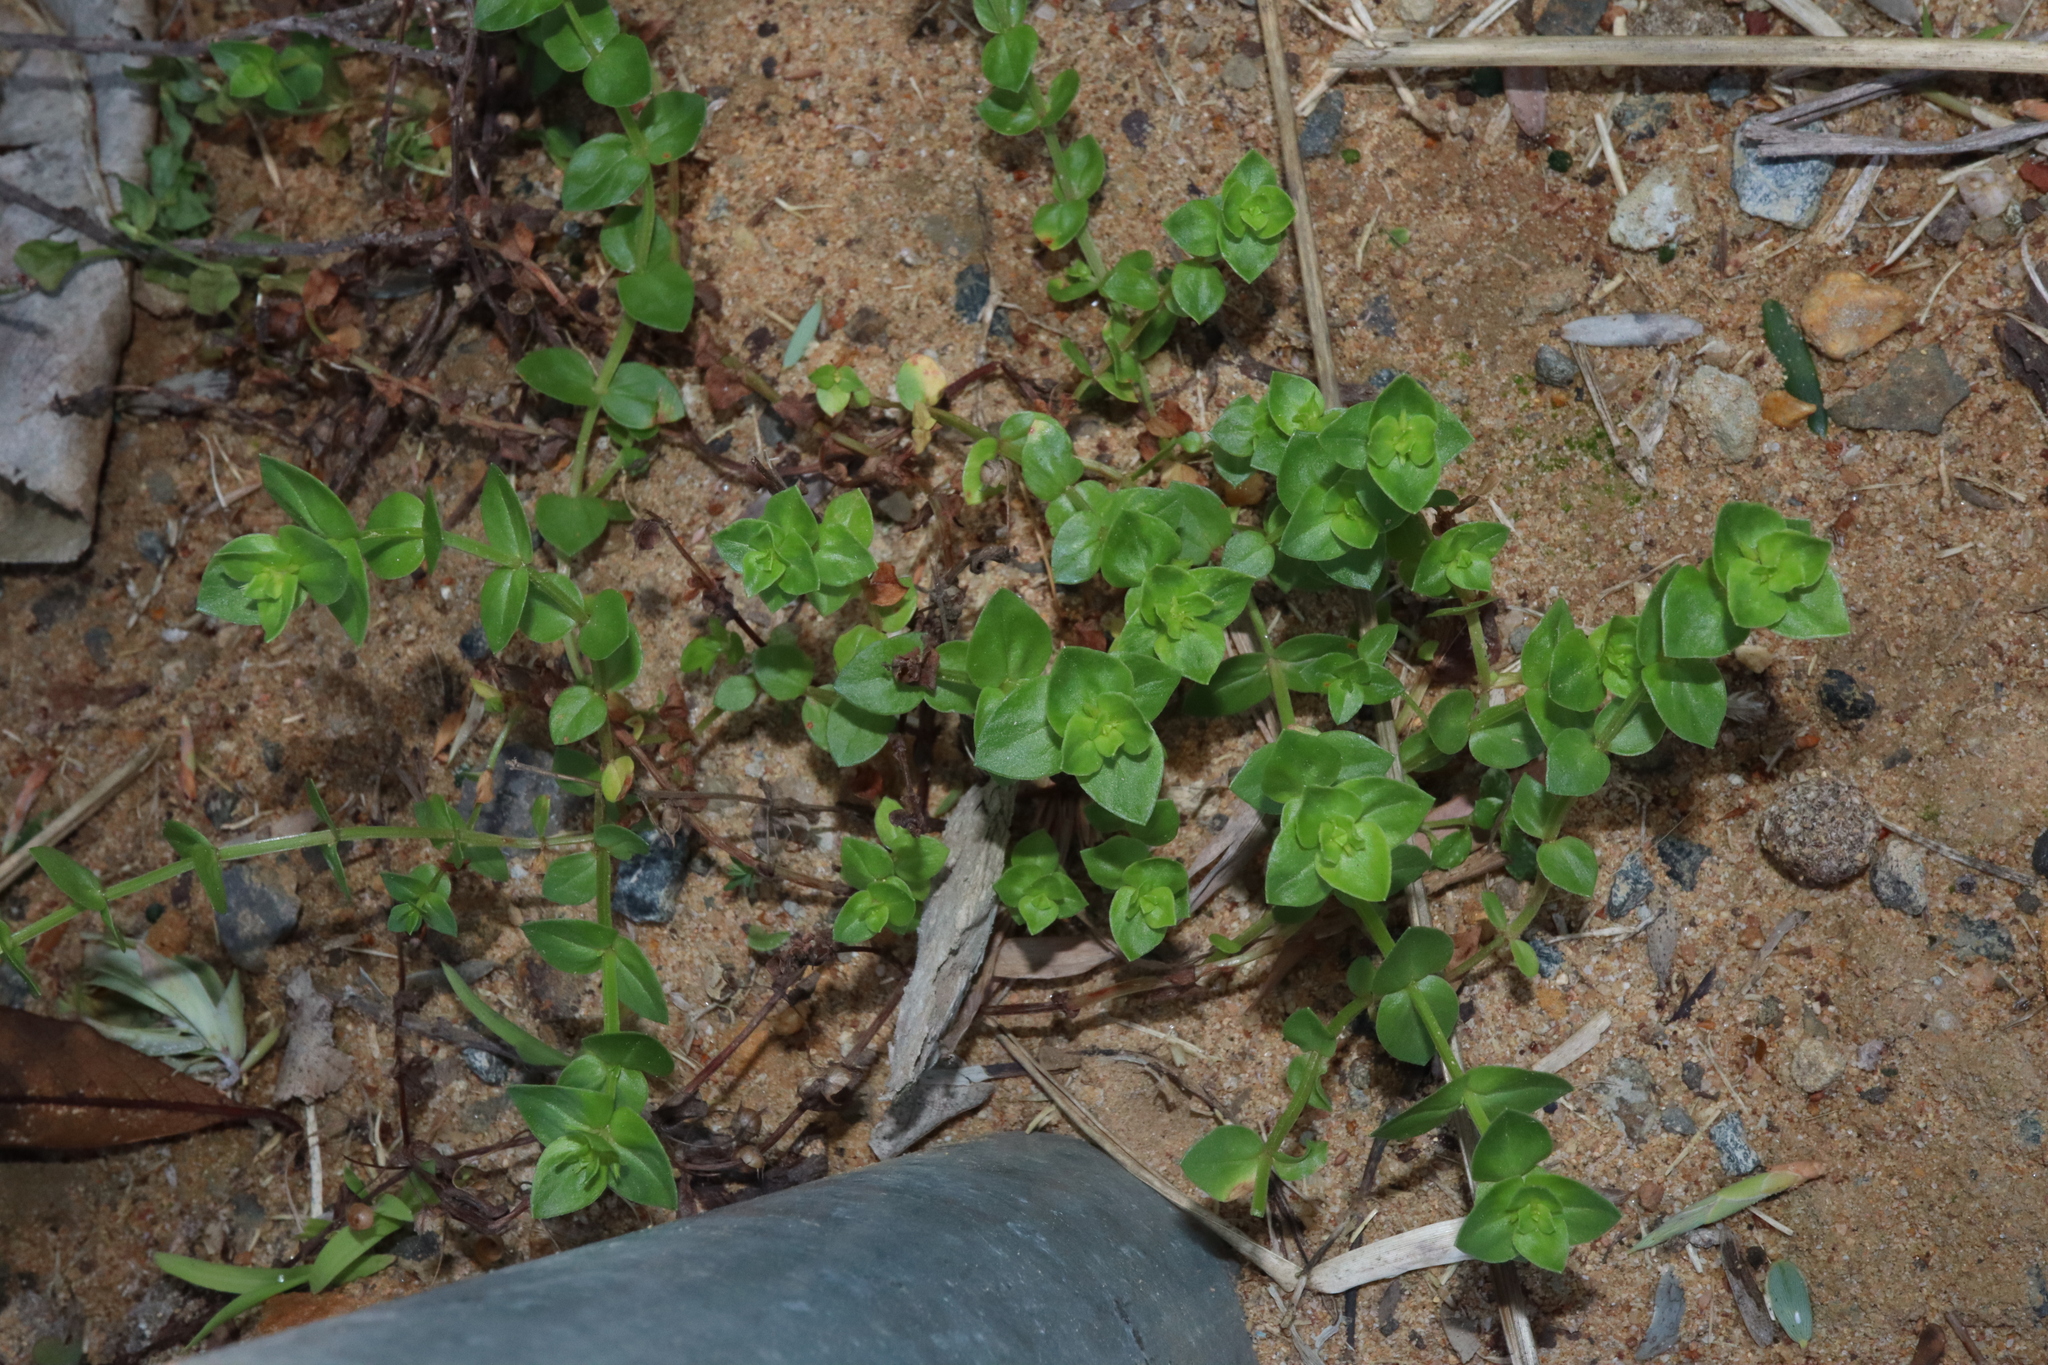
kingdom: Plantae
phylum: Tracheophyta
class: Magnoliopsida
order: Ericales
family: Primulaceae
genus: Lysimachia
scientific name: Lysimachia arvensis
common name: Scarlet pimpernel
